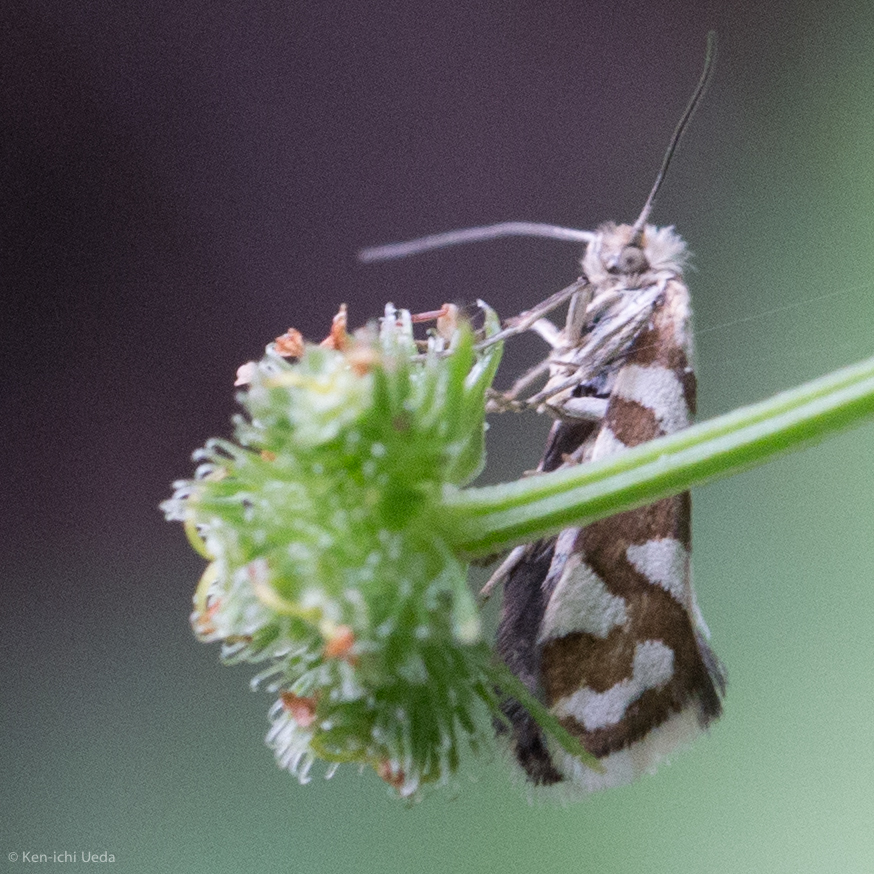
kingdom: Animalia
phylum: Arthropoda
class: Insecta
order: Lepidoptera
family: Prodoxidae
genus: Greya
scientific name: Greya reticulata
